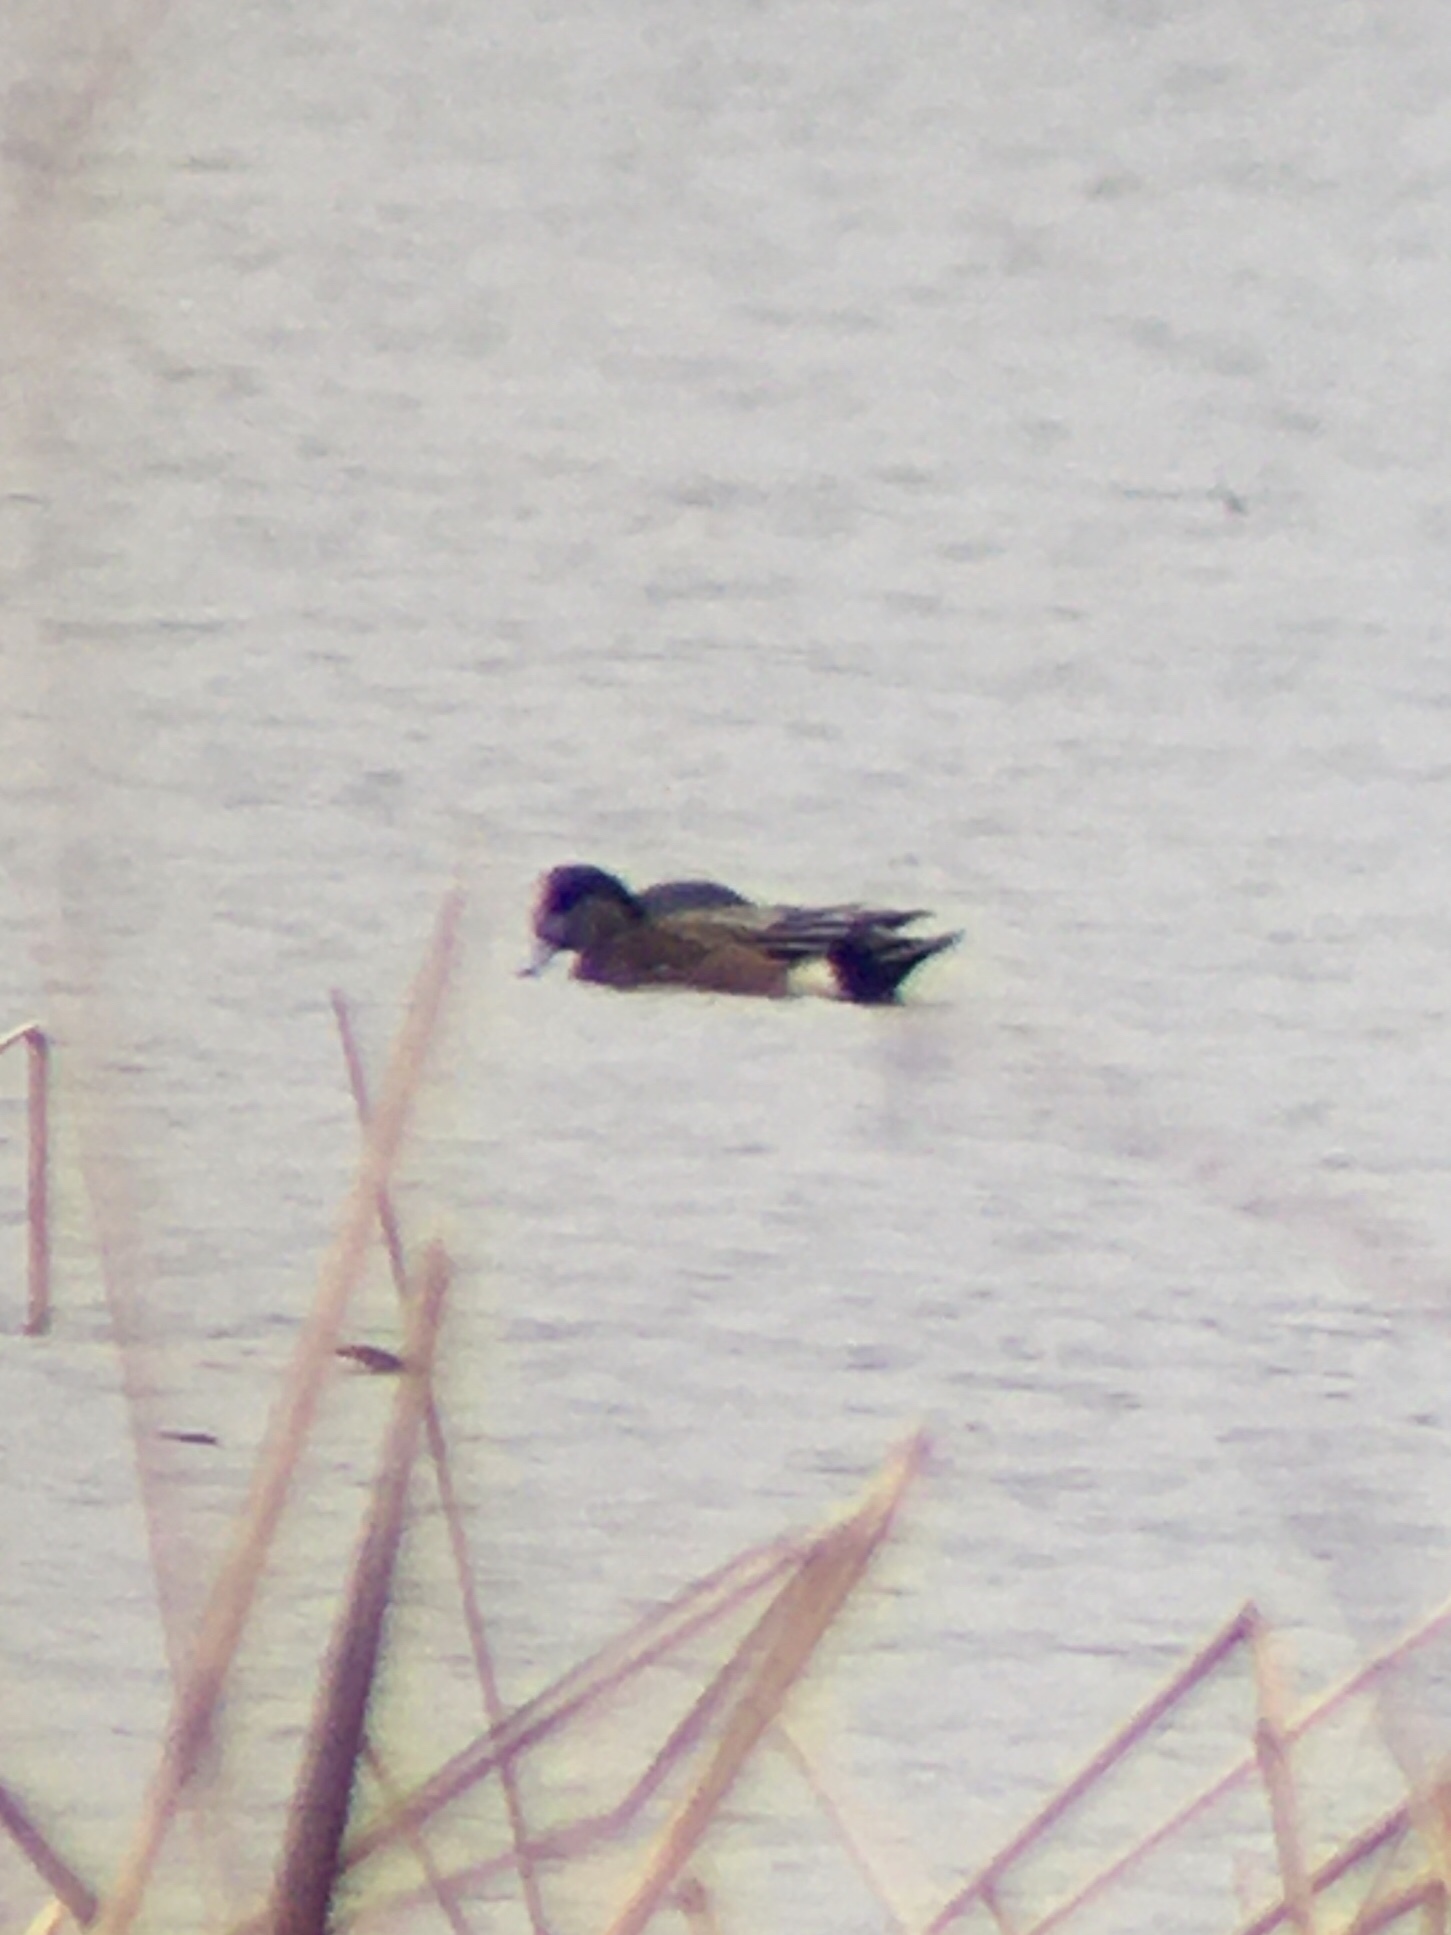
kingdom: Animalia
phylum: Chordata
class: Aves
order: Anseriformes
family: Anatidae
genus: Mareca
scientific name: Mareca americana
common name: American wigeon
